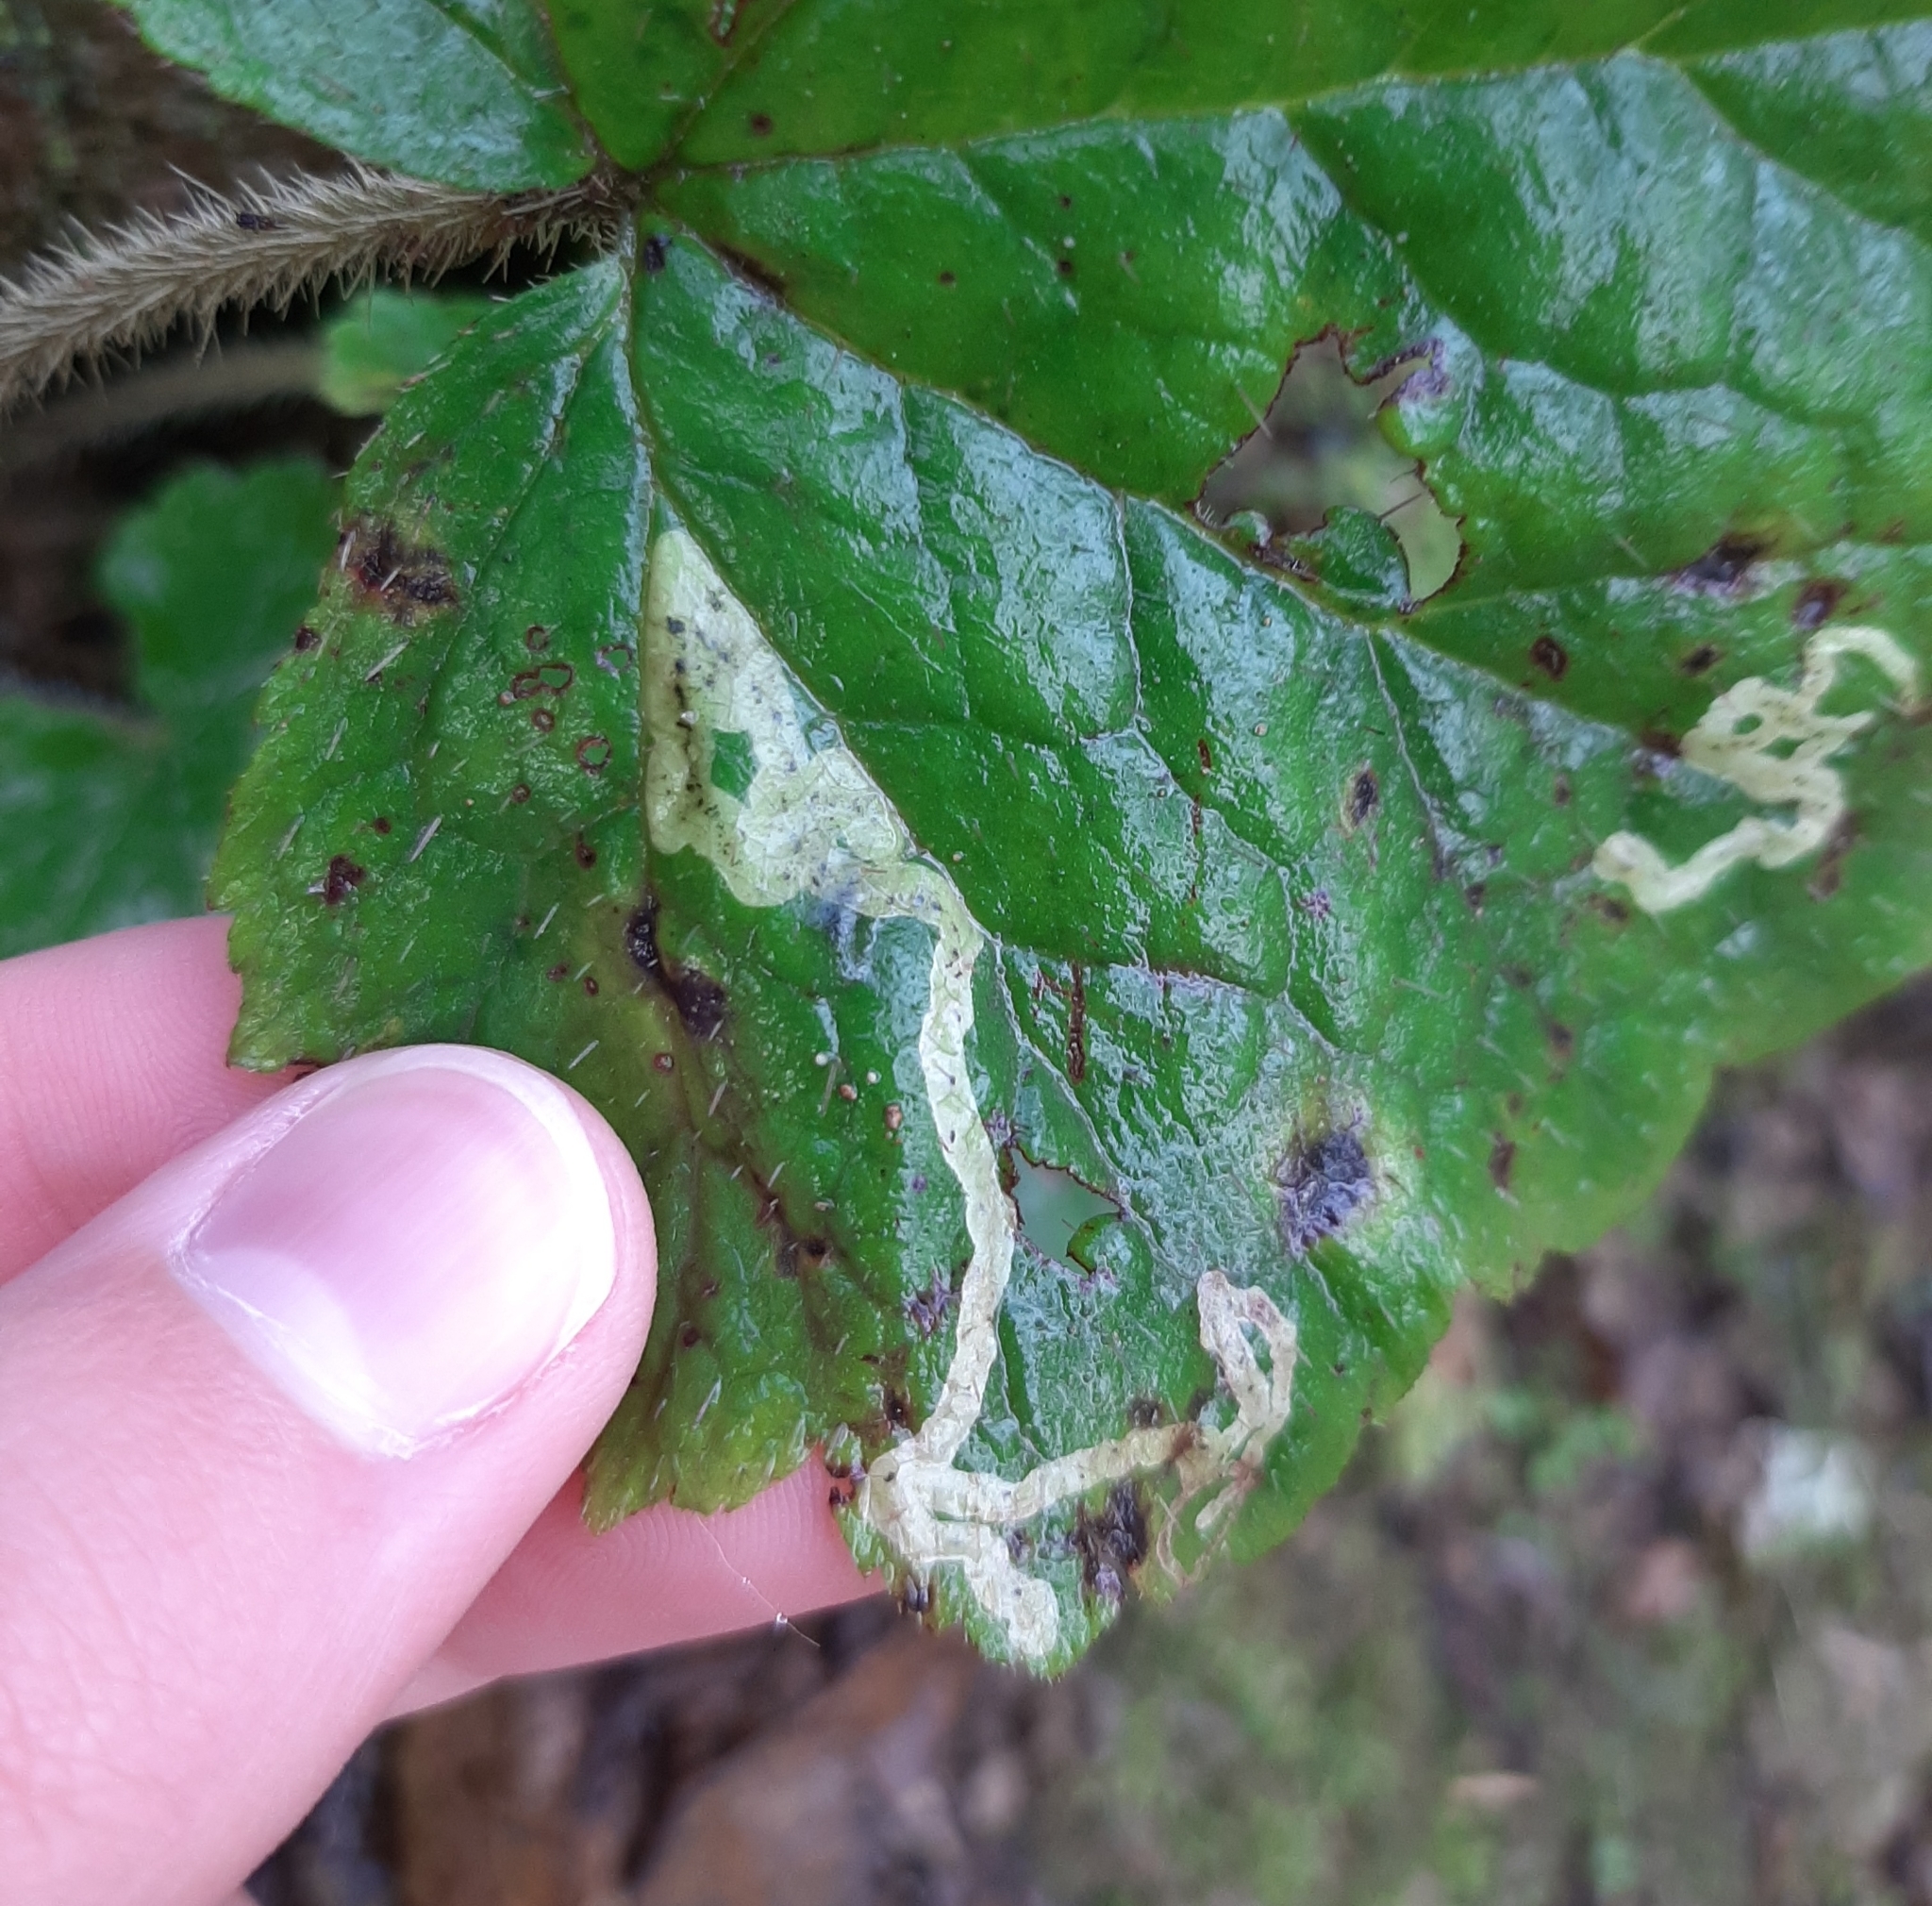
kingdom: Animalia
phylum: Arthropoda
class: Insecta
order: Diptera
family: Agromyzidae
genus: Phytomyza
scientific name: Phytomyza tiarellae
